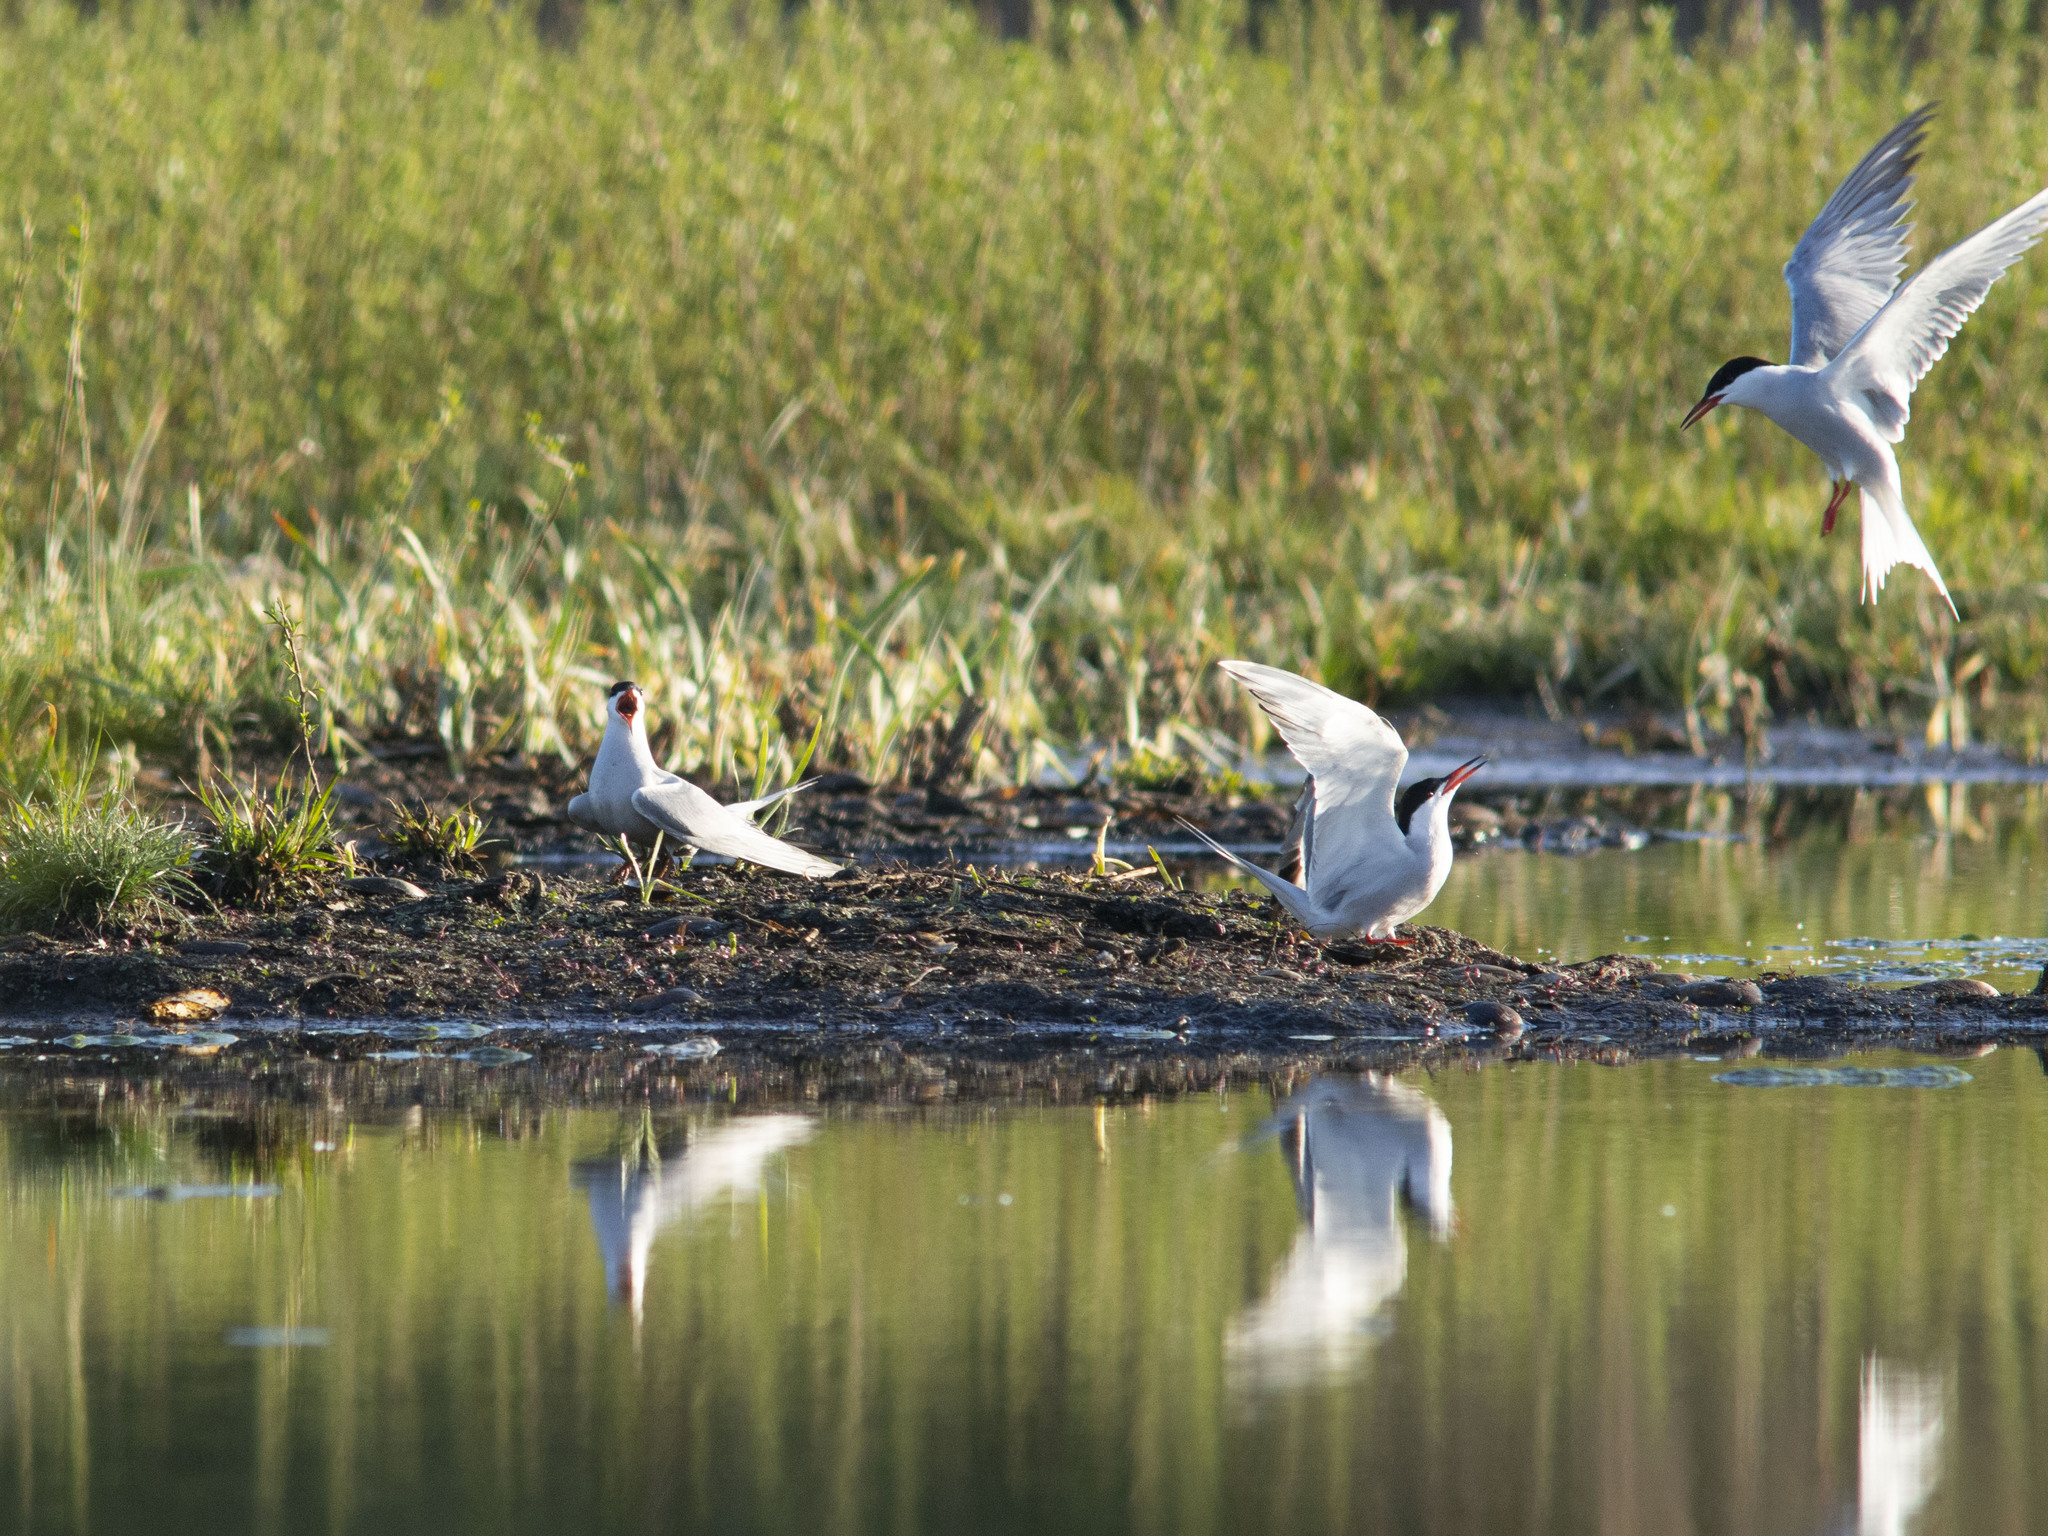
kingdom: Animalia
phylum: Chordata
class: Aves
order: Charadriiformes
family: Laridae
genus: Sterna
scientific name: Sterna hirundo
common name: Common tern
